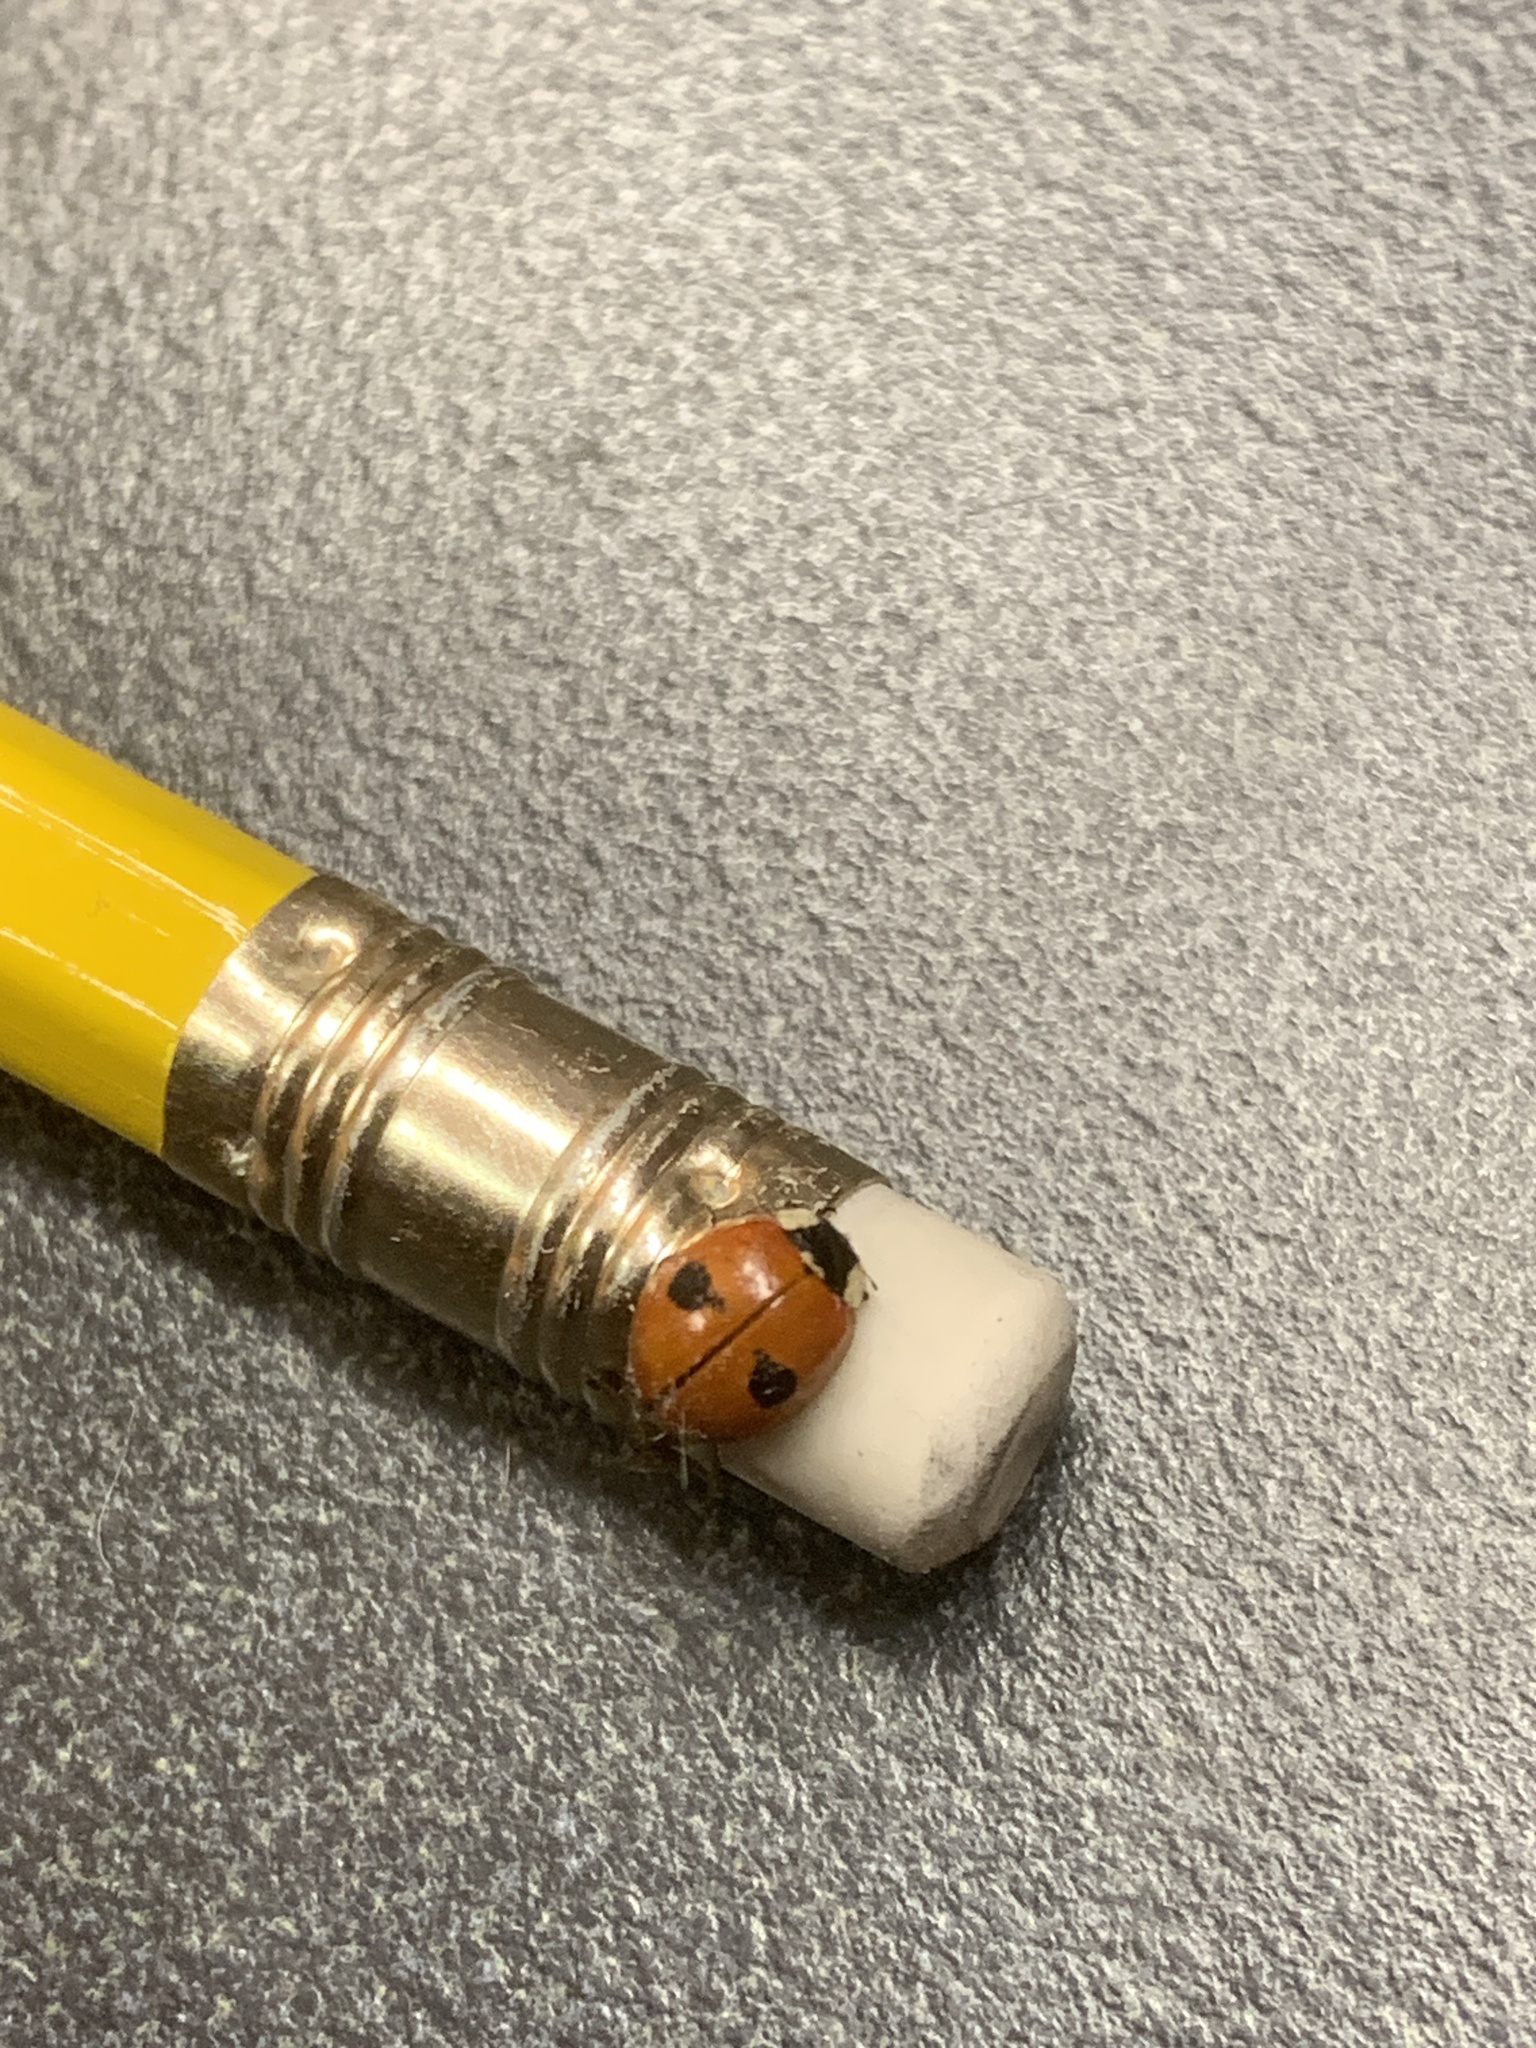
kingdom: Animalia
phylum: Arthropoda
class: Insecta
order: Coleoptera
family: Coccinellidae
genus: Adalia
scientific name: Adalia bipunctata
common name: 2-spot ladybird
